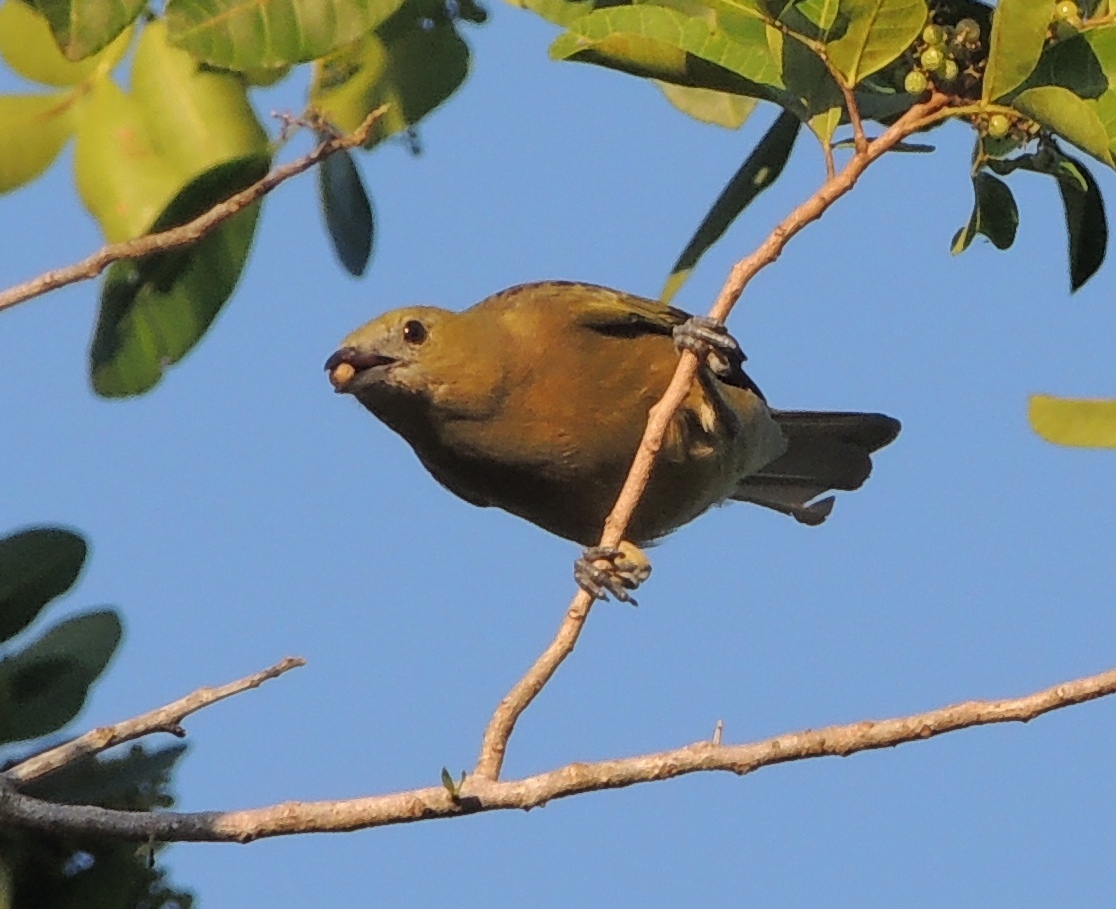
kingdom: Animalia
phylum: Chordata
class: Aves
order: Passeriformes
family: Thraupidae
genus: Thraupis
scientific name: Thraupis palmarum
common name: Palm tanager
